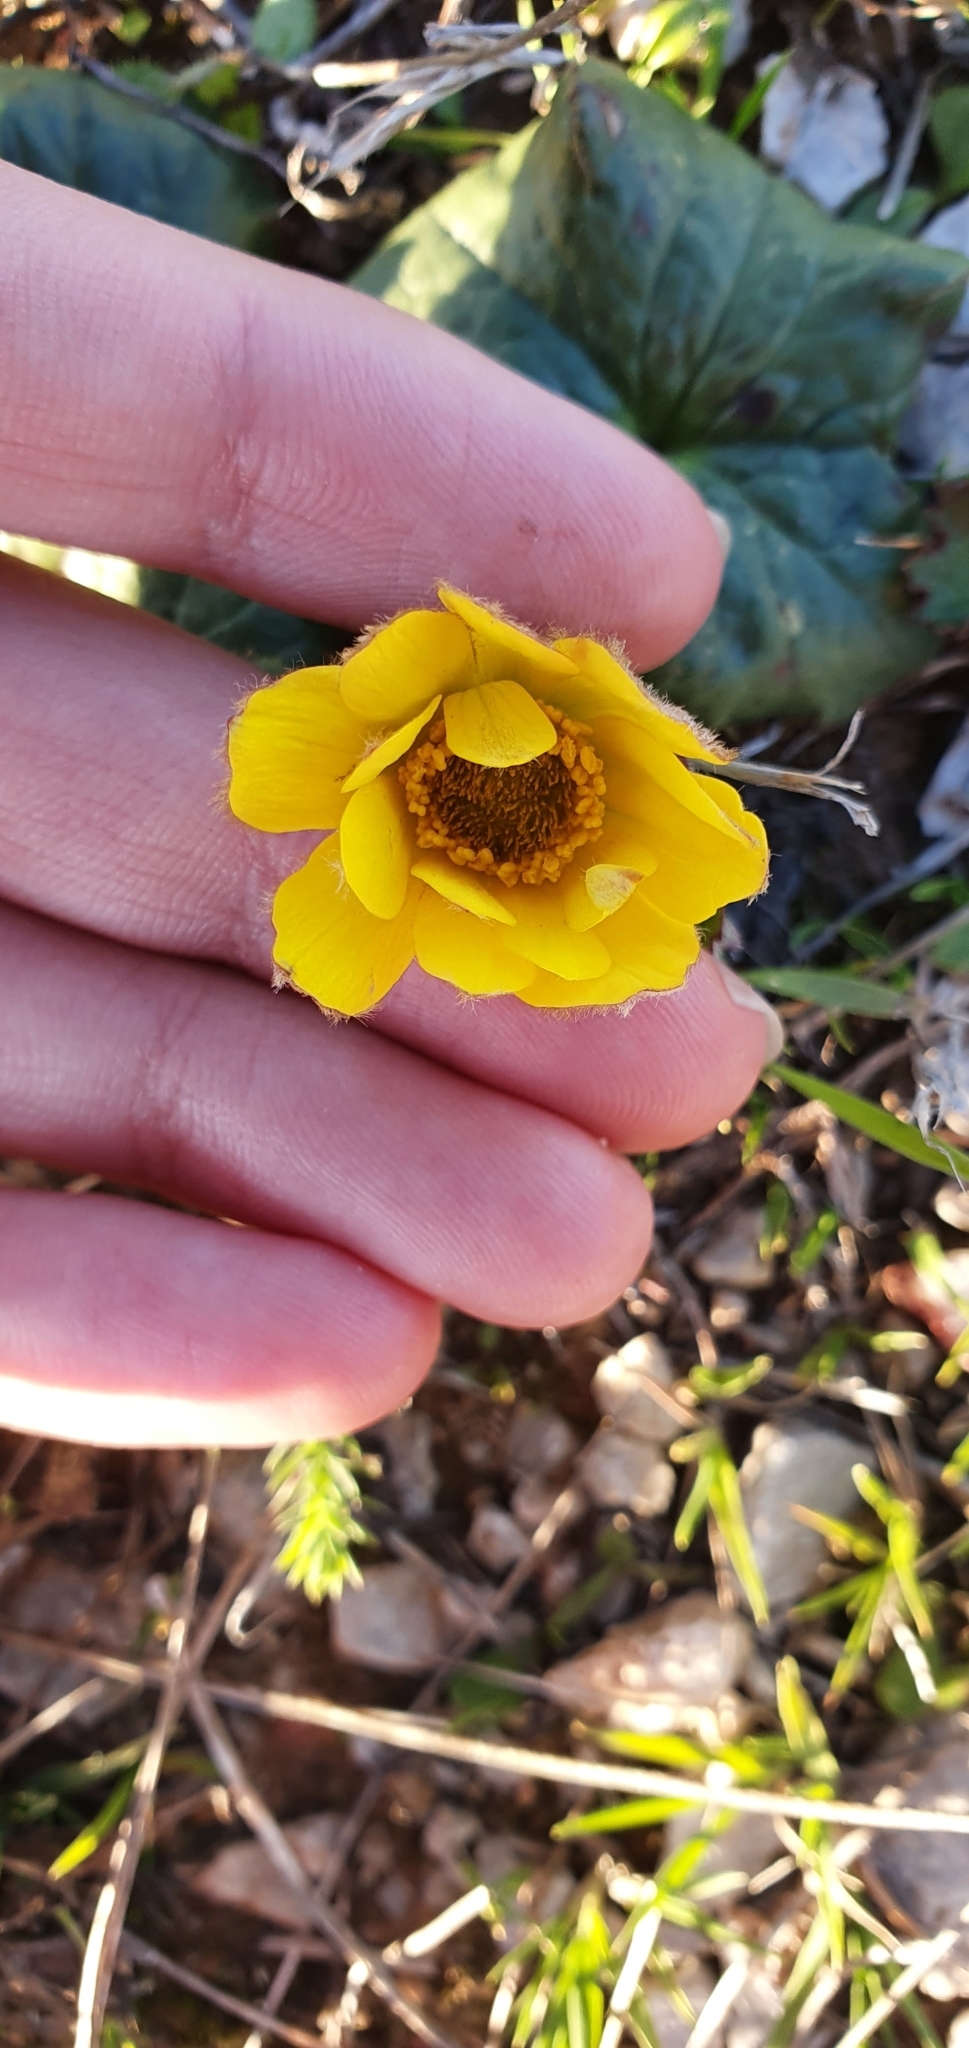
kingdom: Plantae
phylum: Tracheophyta
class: Magnoliopsida
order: Ranunculales
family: Ranunculaceae
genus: Anemone
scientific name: Anemone palmata
